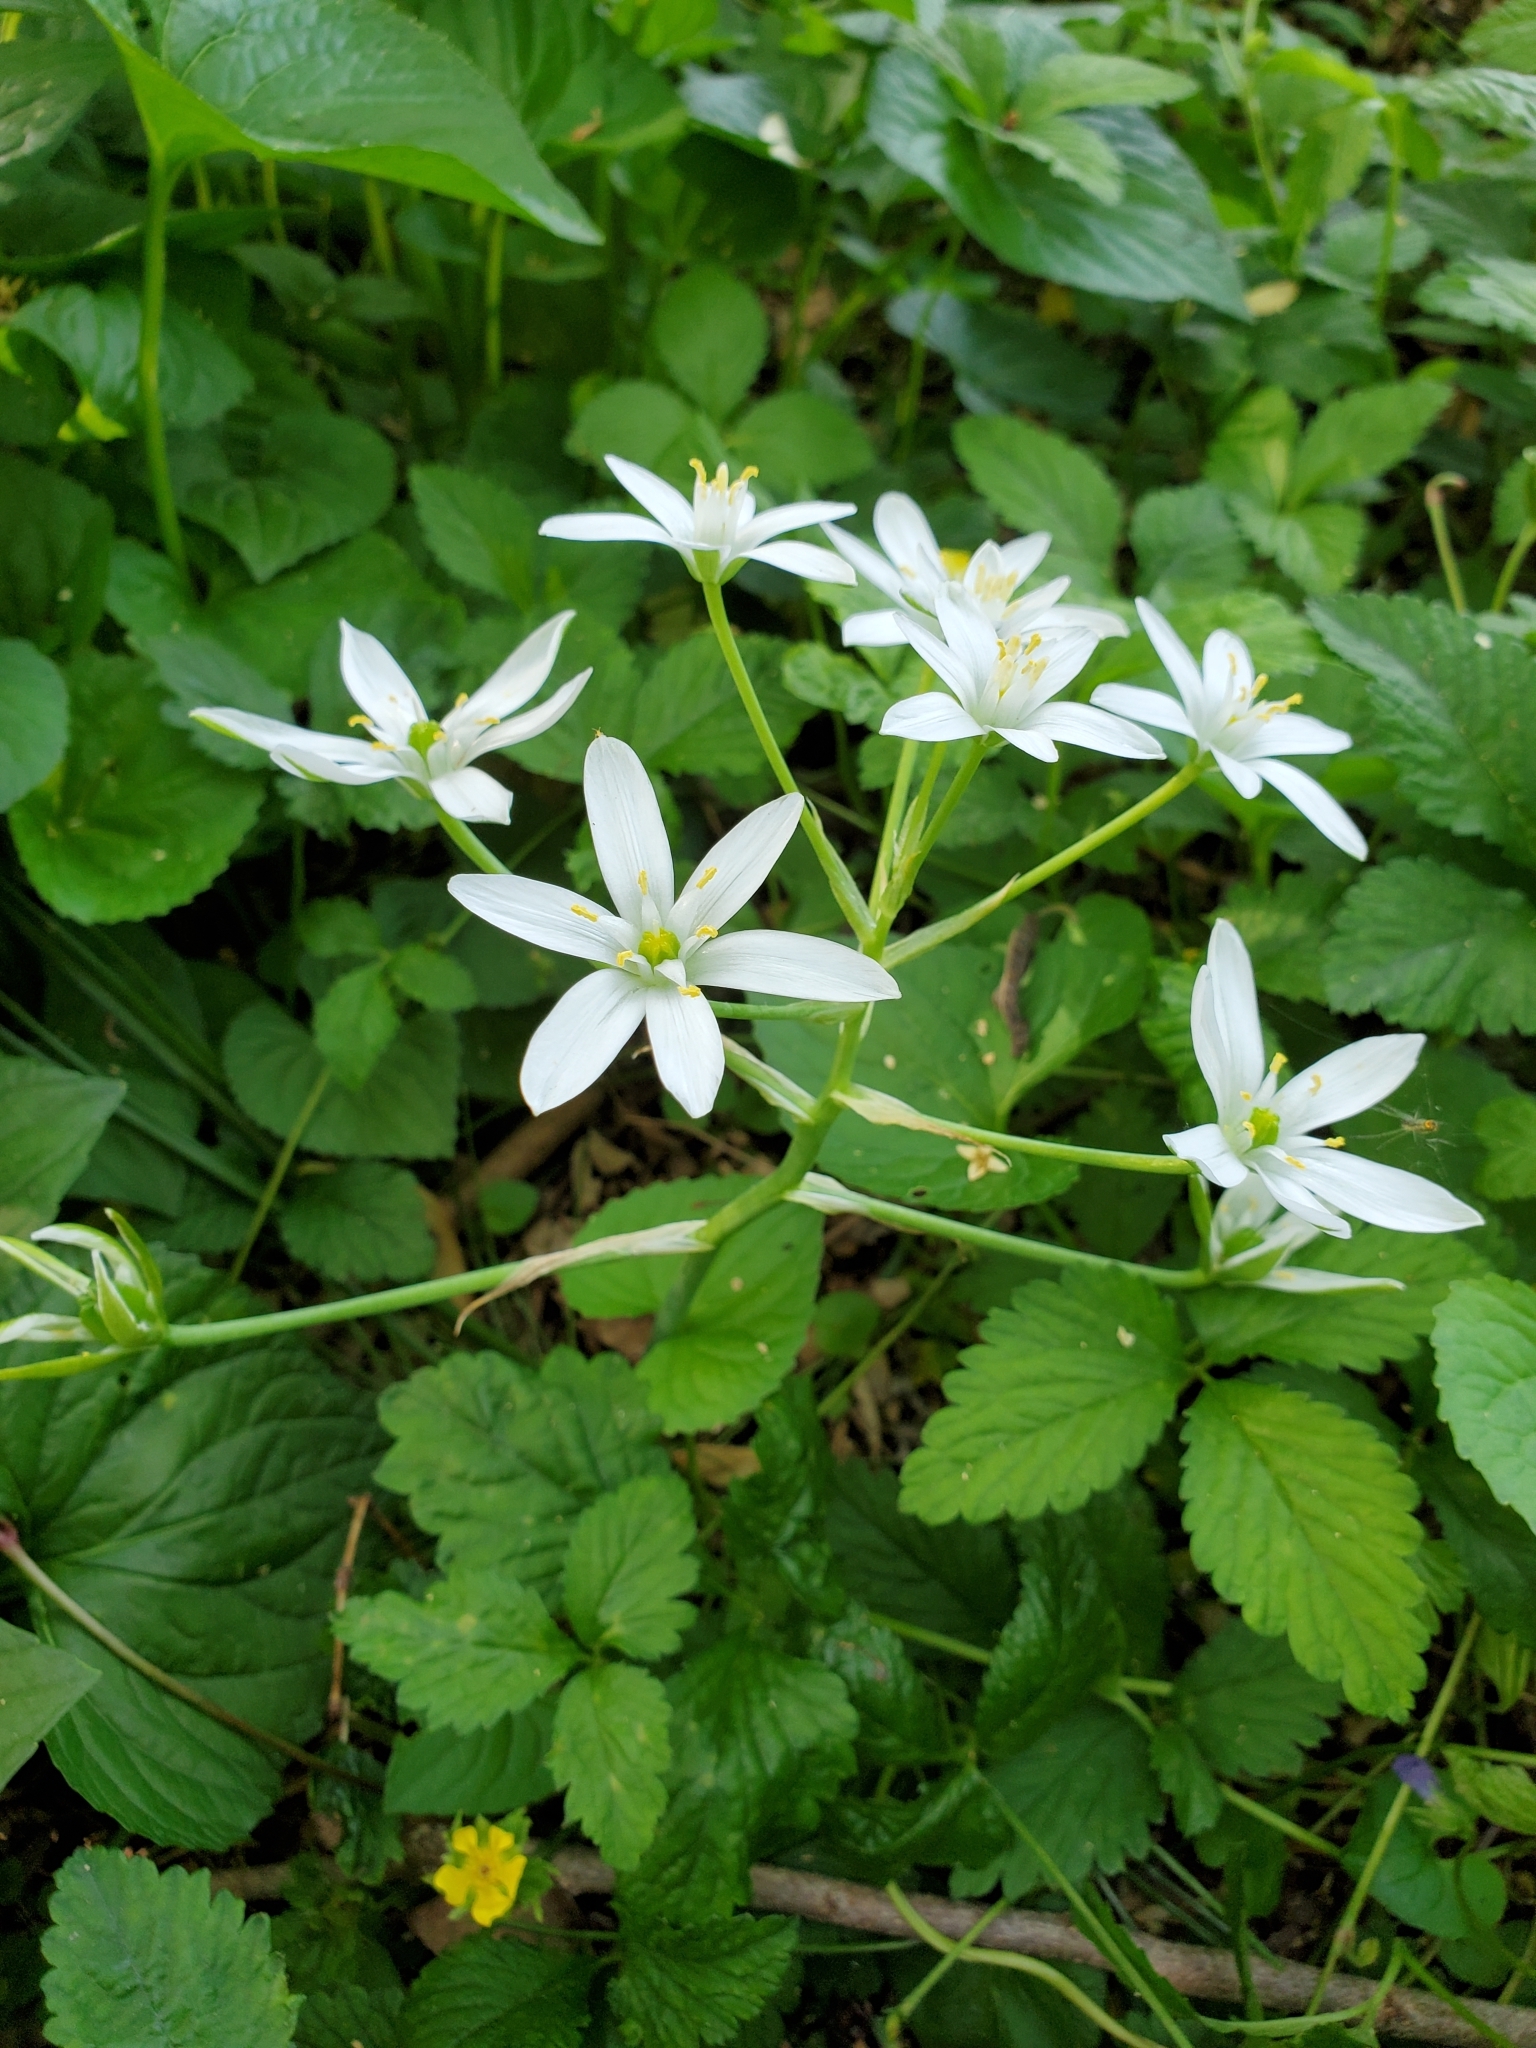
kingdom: Plantae
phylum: Tracheophyta
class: Liliopsida
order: Asparagales
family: Asparagaceae
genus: Ornithogalum
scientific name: Ornithogalum umbellatum
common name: Garden star-of-bethlehem
